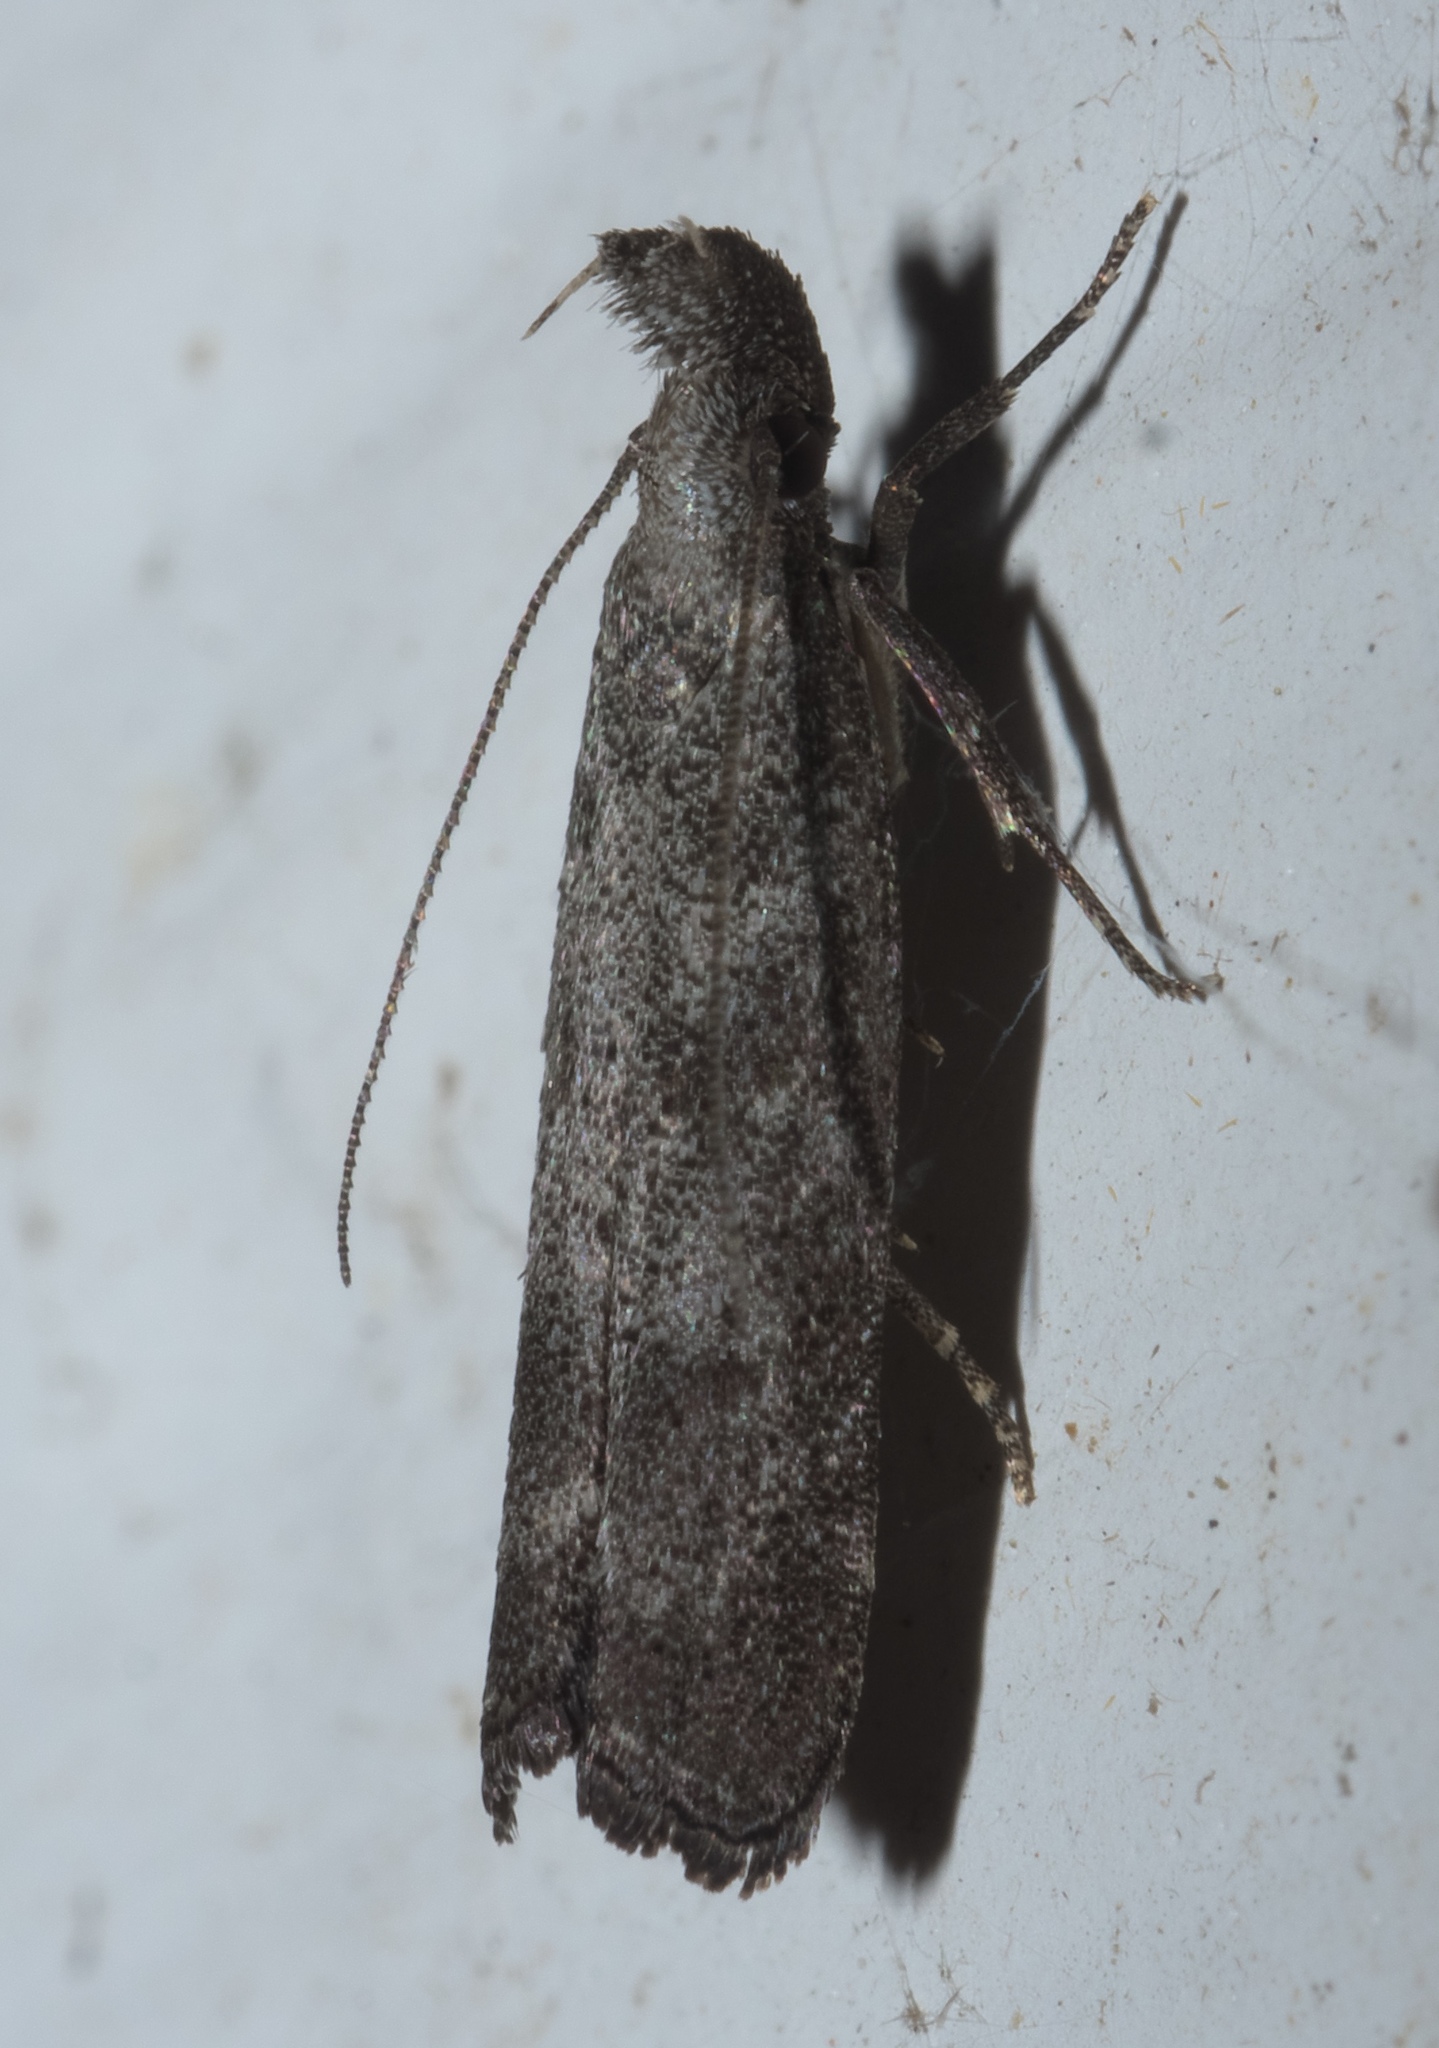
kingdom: Animalia
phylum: Arthropoda
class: Insecta
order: Lepidoptera
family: Gelechiidae
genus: Dichomeris
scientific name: Dichomeris inversella
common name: Inverse dichomeris moth
